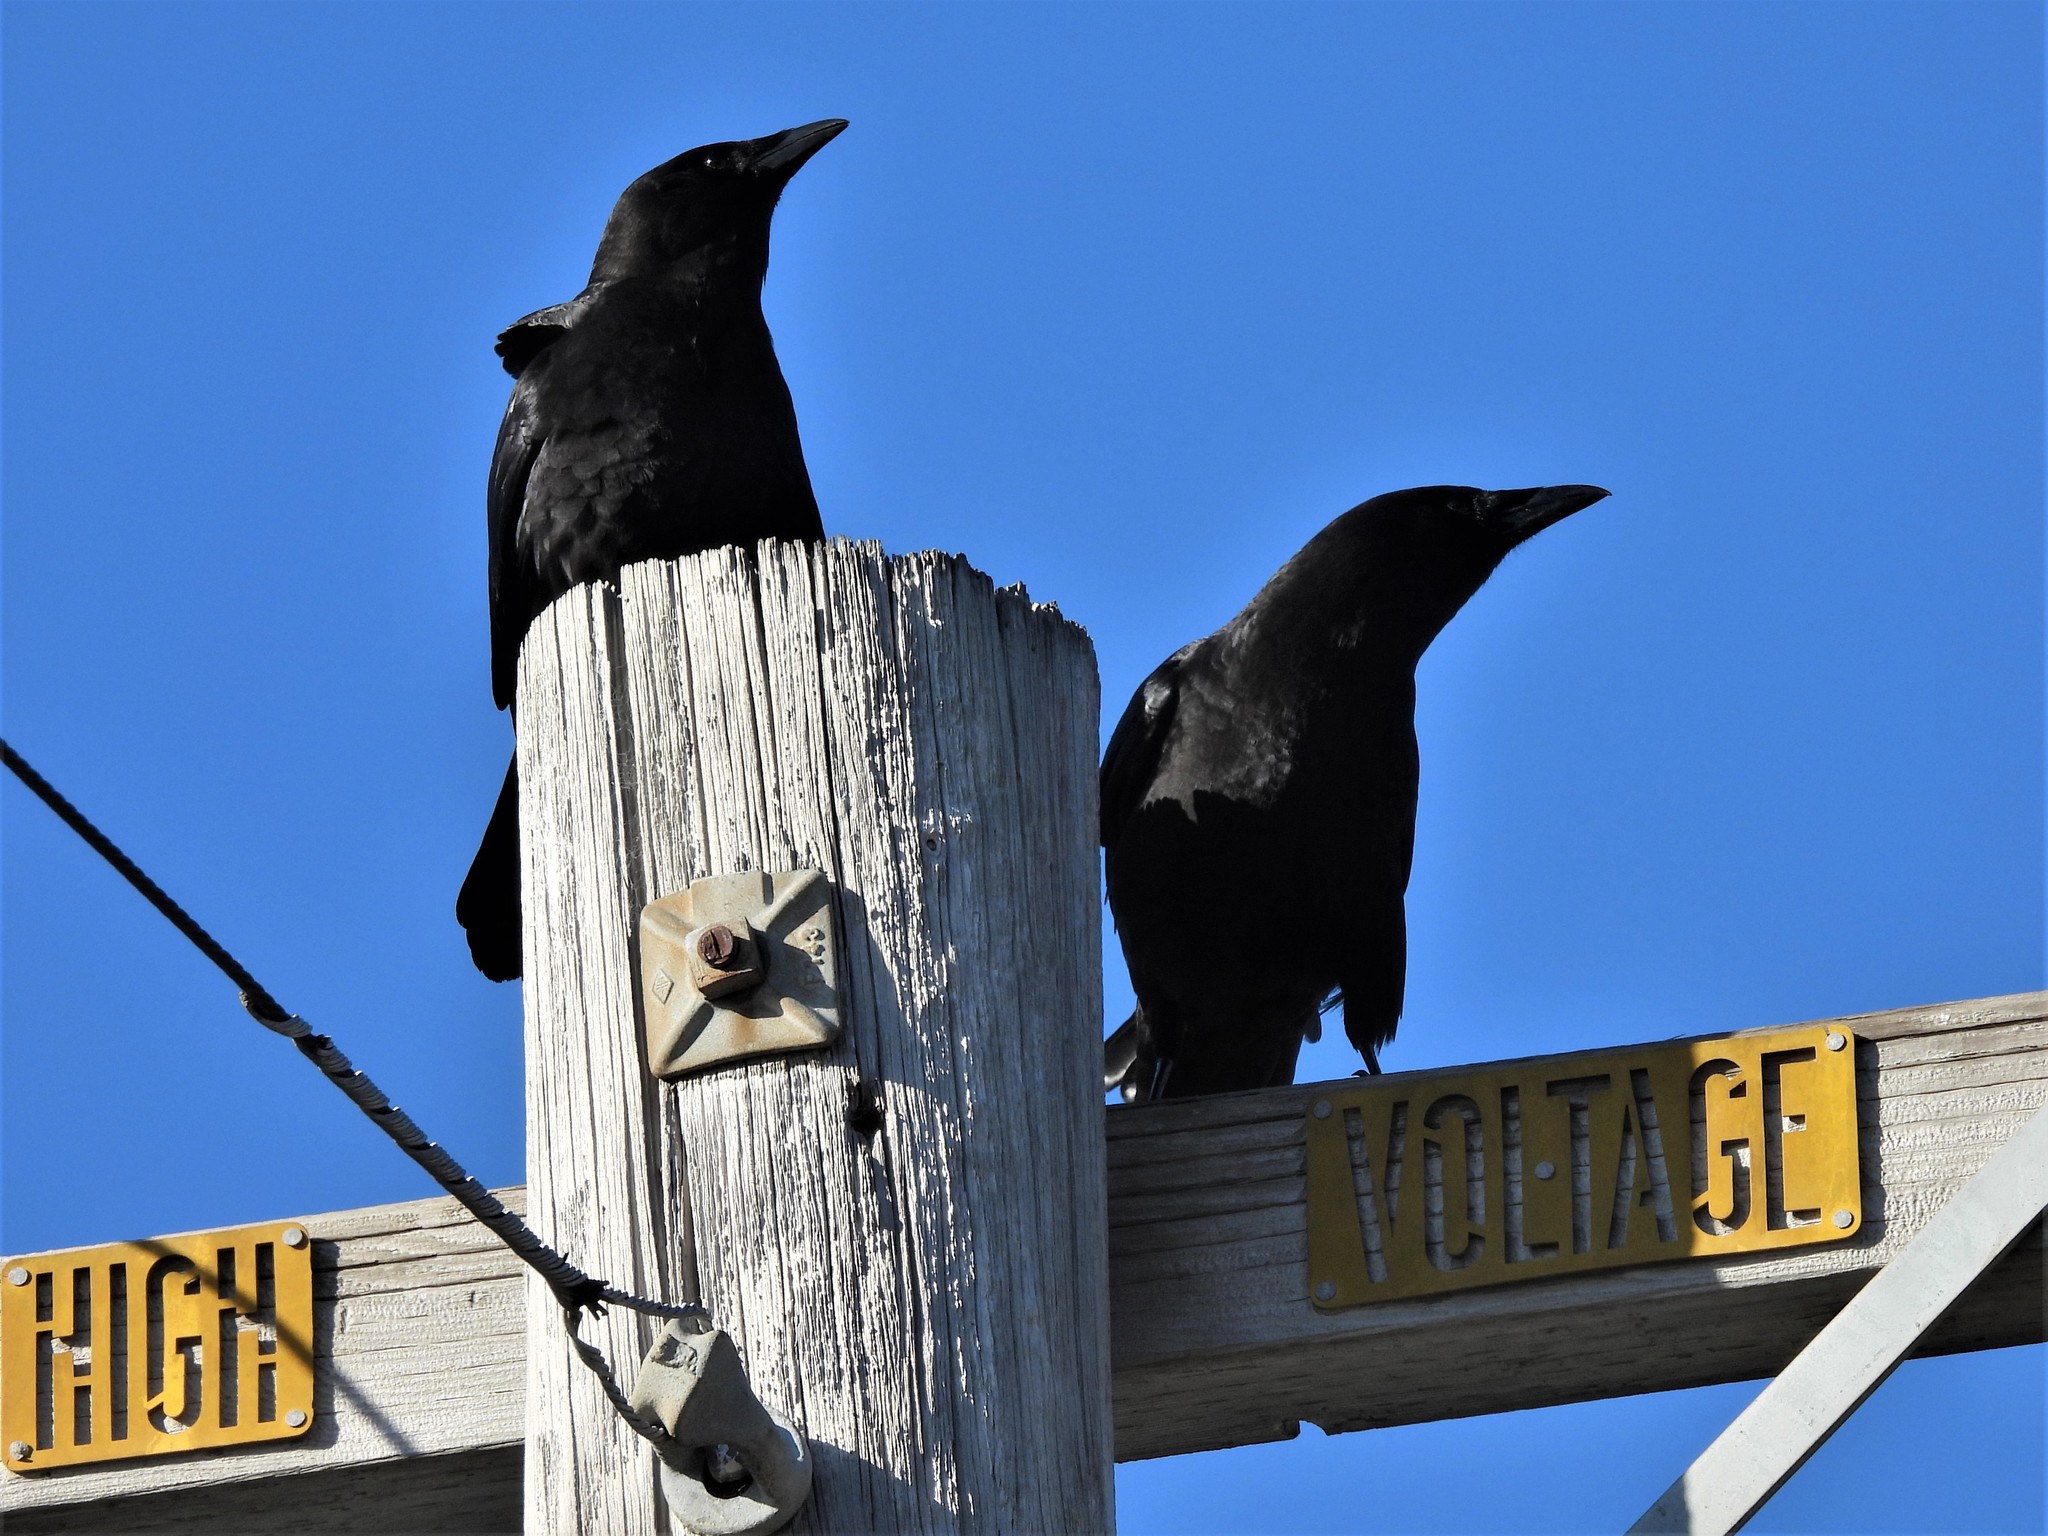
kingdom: Animalia
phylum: Chordata
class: Aves
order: Passeriformes
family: Corvidae
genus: Corvus
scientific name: Corvus brachyrhynchos
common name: American crow
